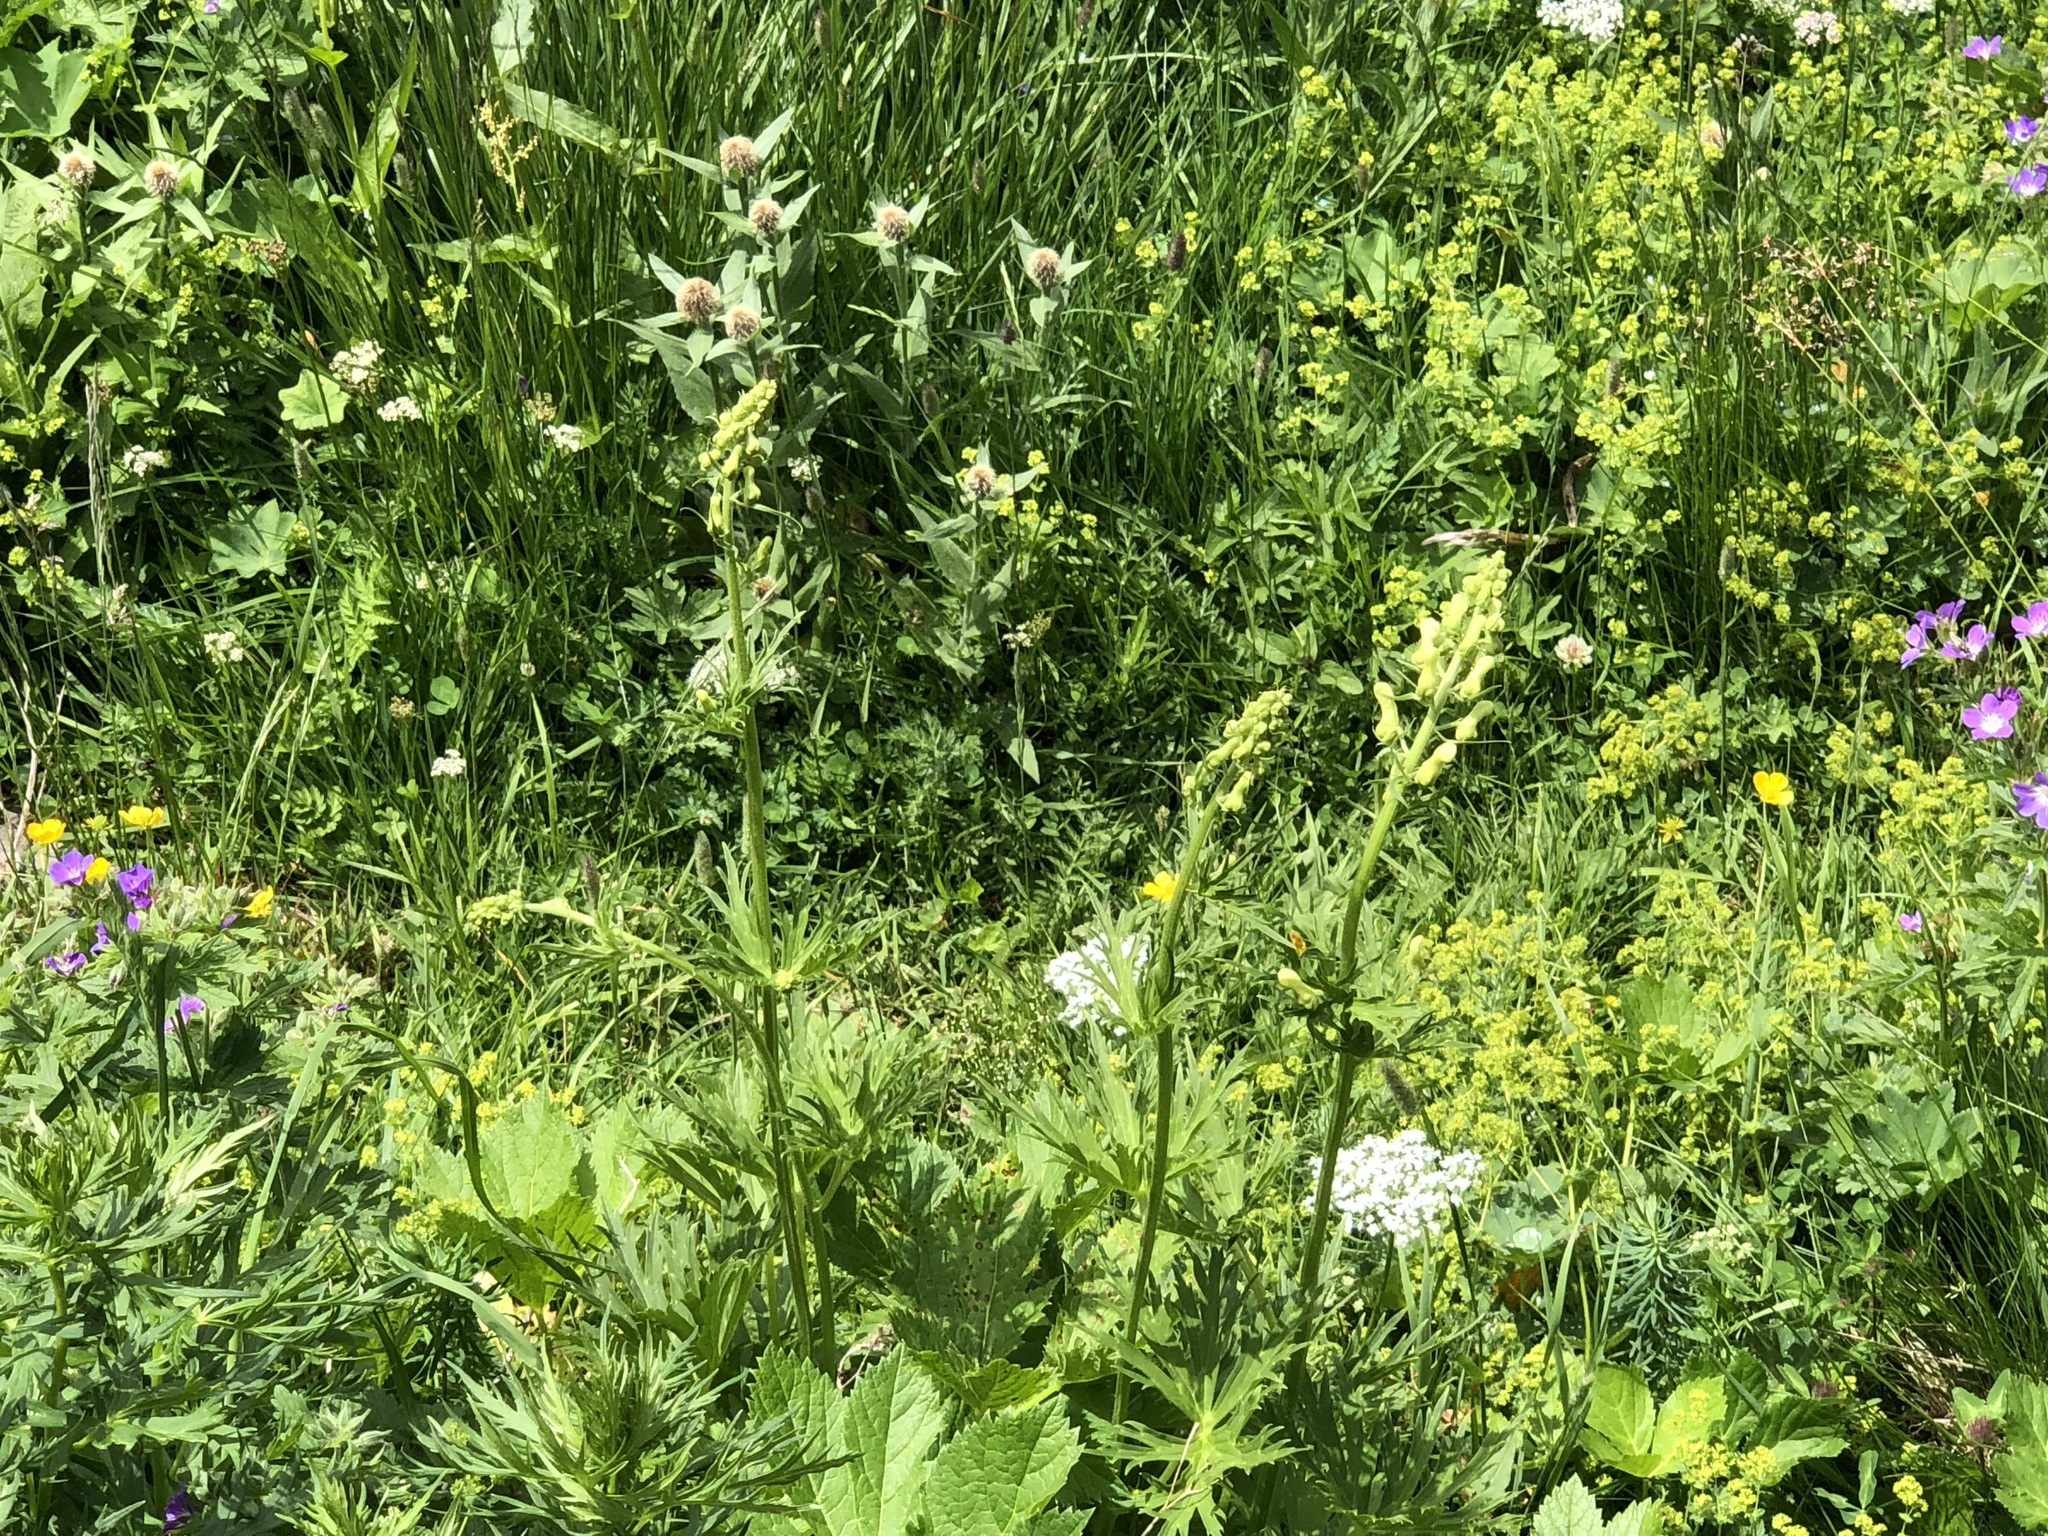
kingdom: Plantae
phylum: Tracheophyta
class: Magnoliopsida
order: Ranunculales
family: Ranunculaceae
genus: Aconitum
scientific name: Aconitum lycoctonum
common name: Wolf's-bane
